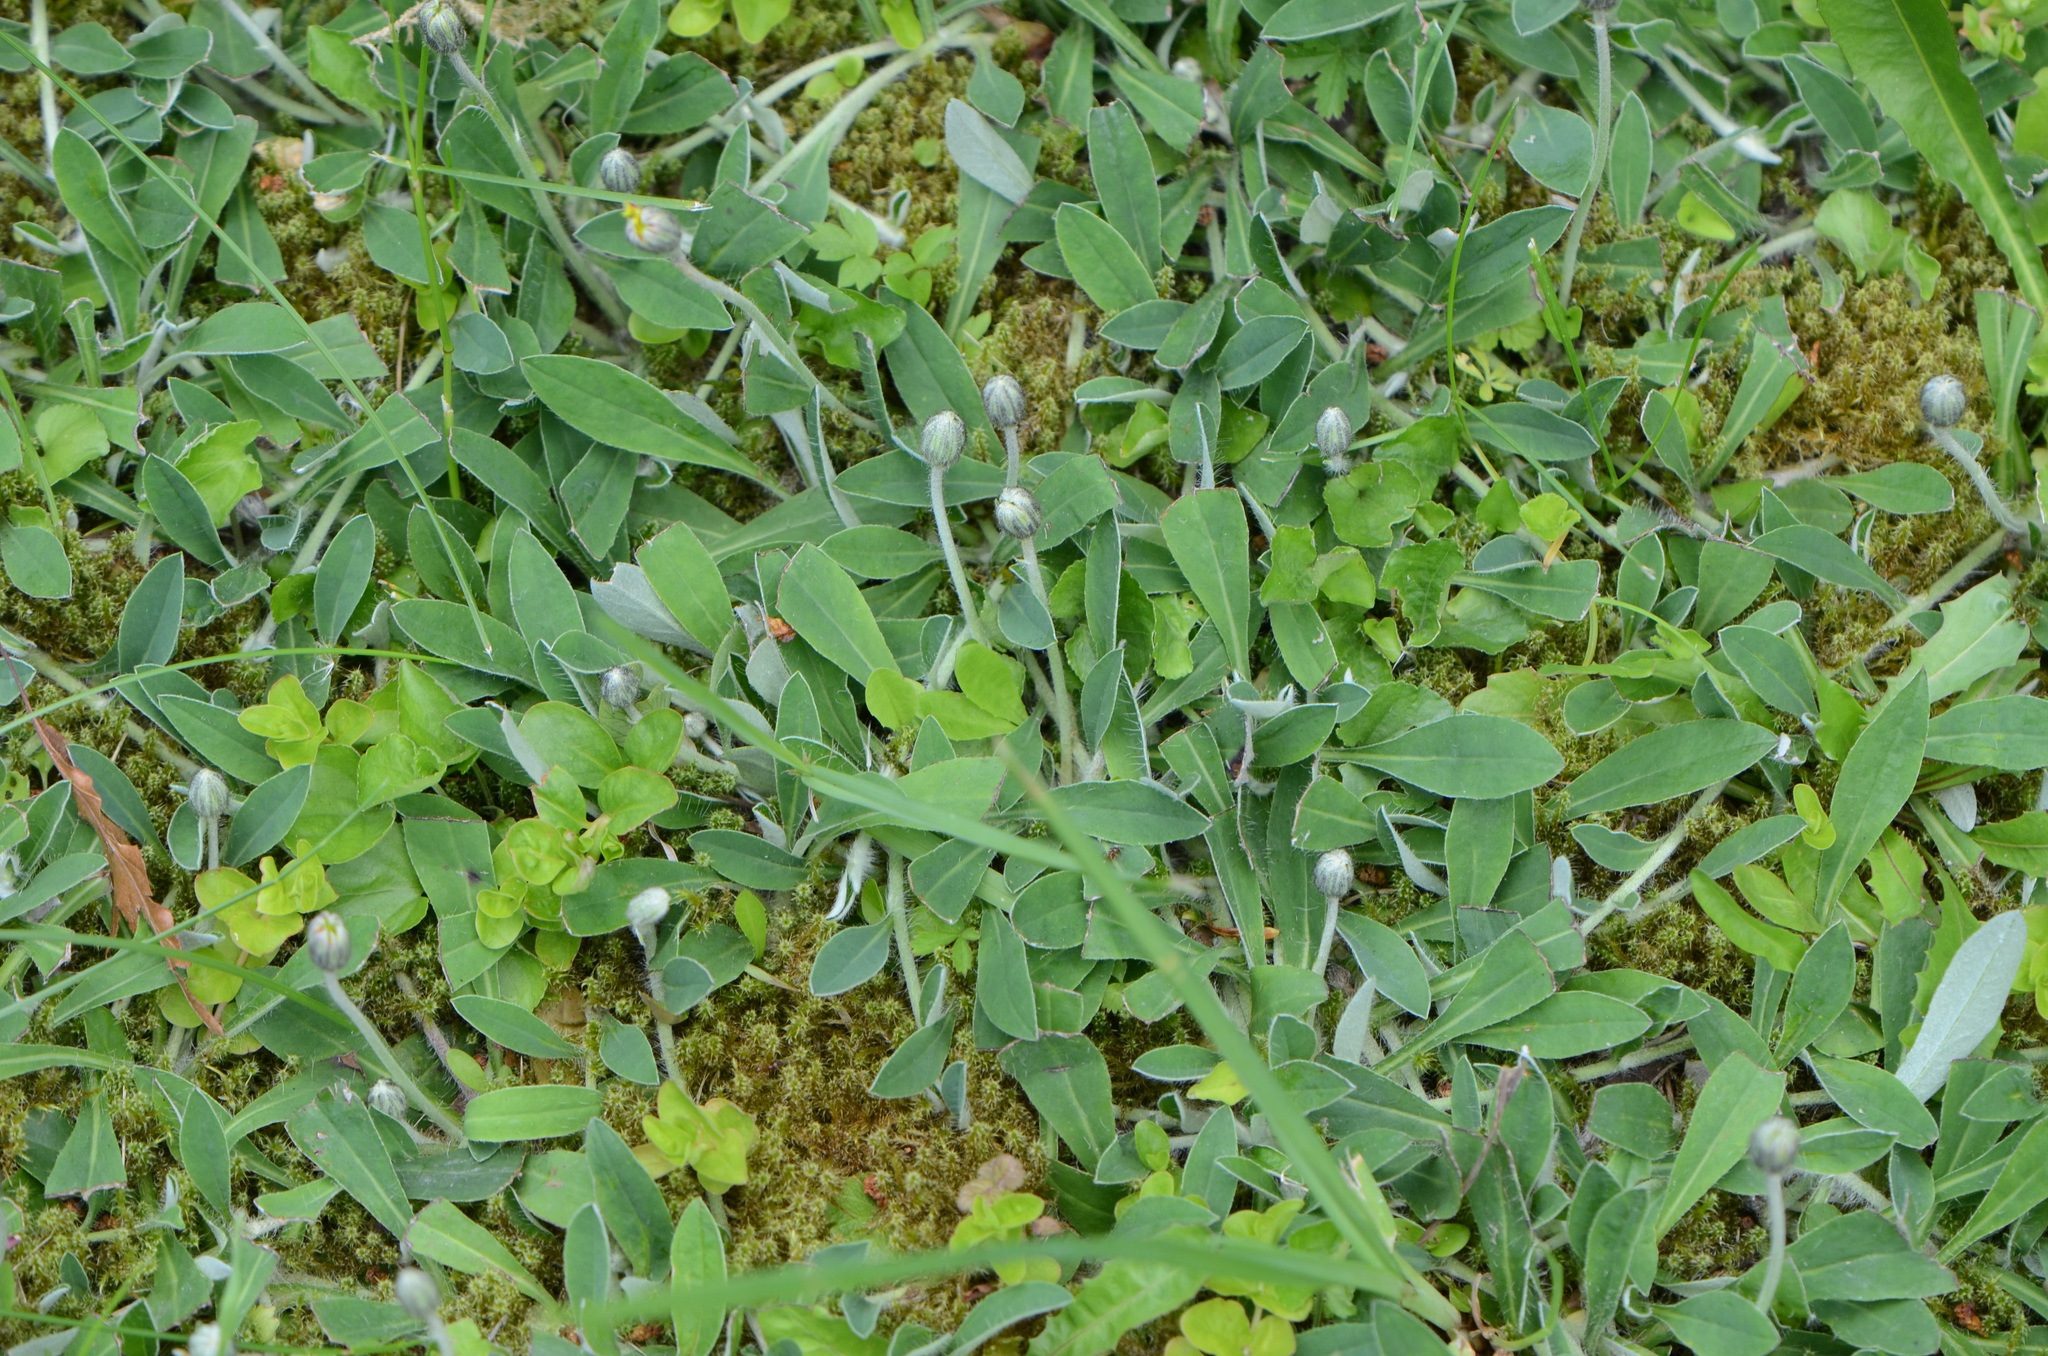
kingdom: Plantae
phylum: Tracheophyta
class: Magnoliopsida
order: Asterales
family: Asteraceae
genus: Pilosella
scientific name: Pilosella officinarum
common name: Mouse-ear hawkweed
